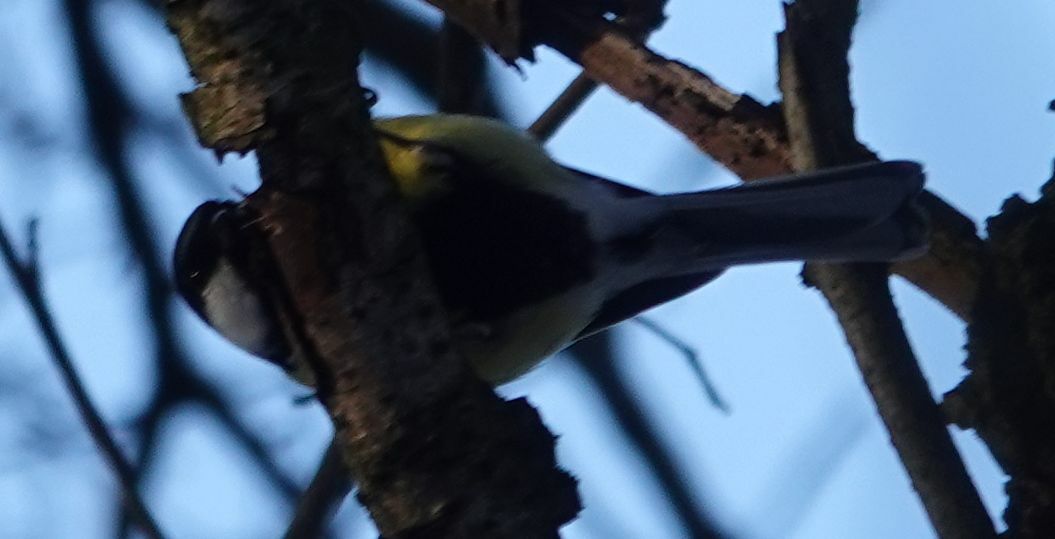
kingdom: Animalia
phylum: Chordata
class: Aves
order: Passeriformes
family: Paridae
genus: Parus
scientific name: Parus major
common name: Great tit
